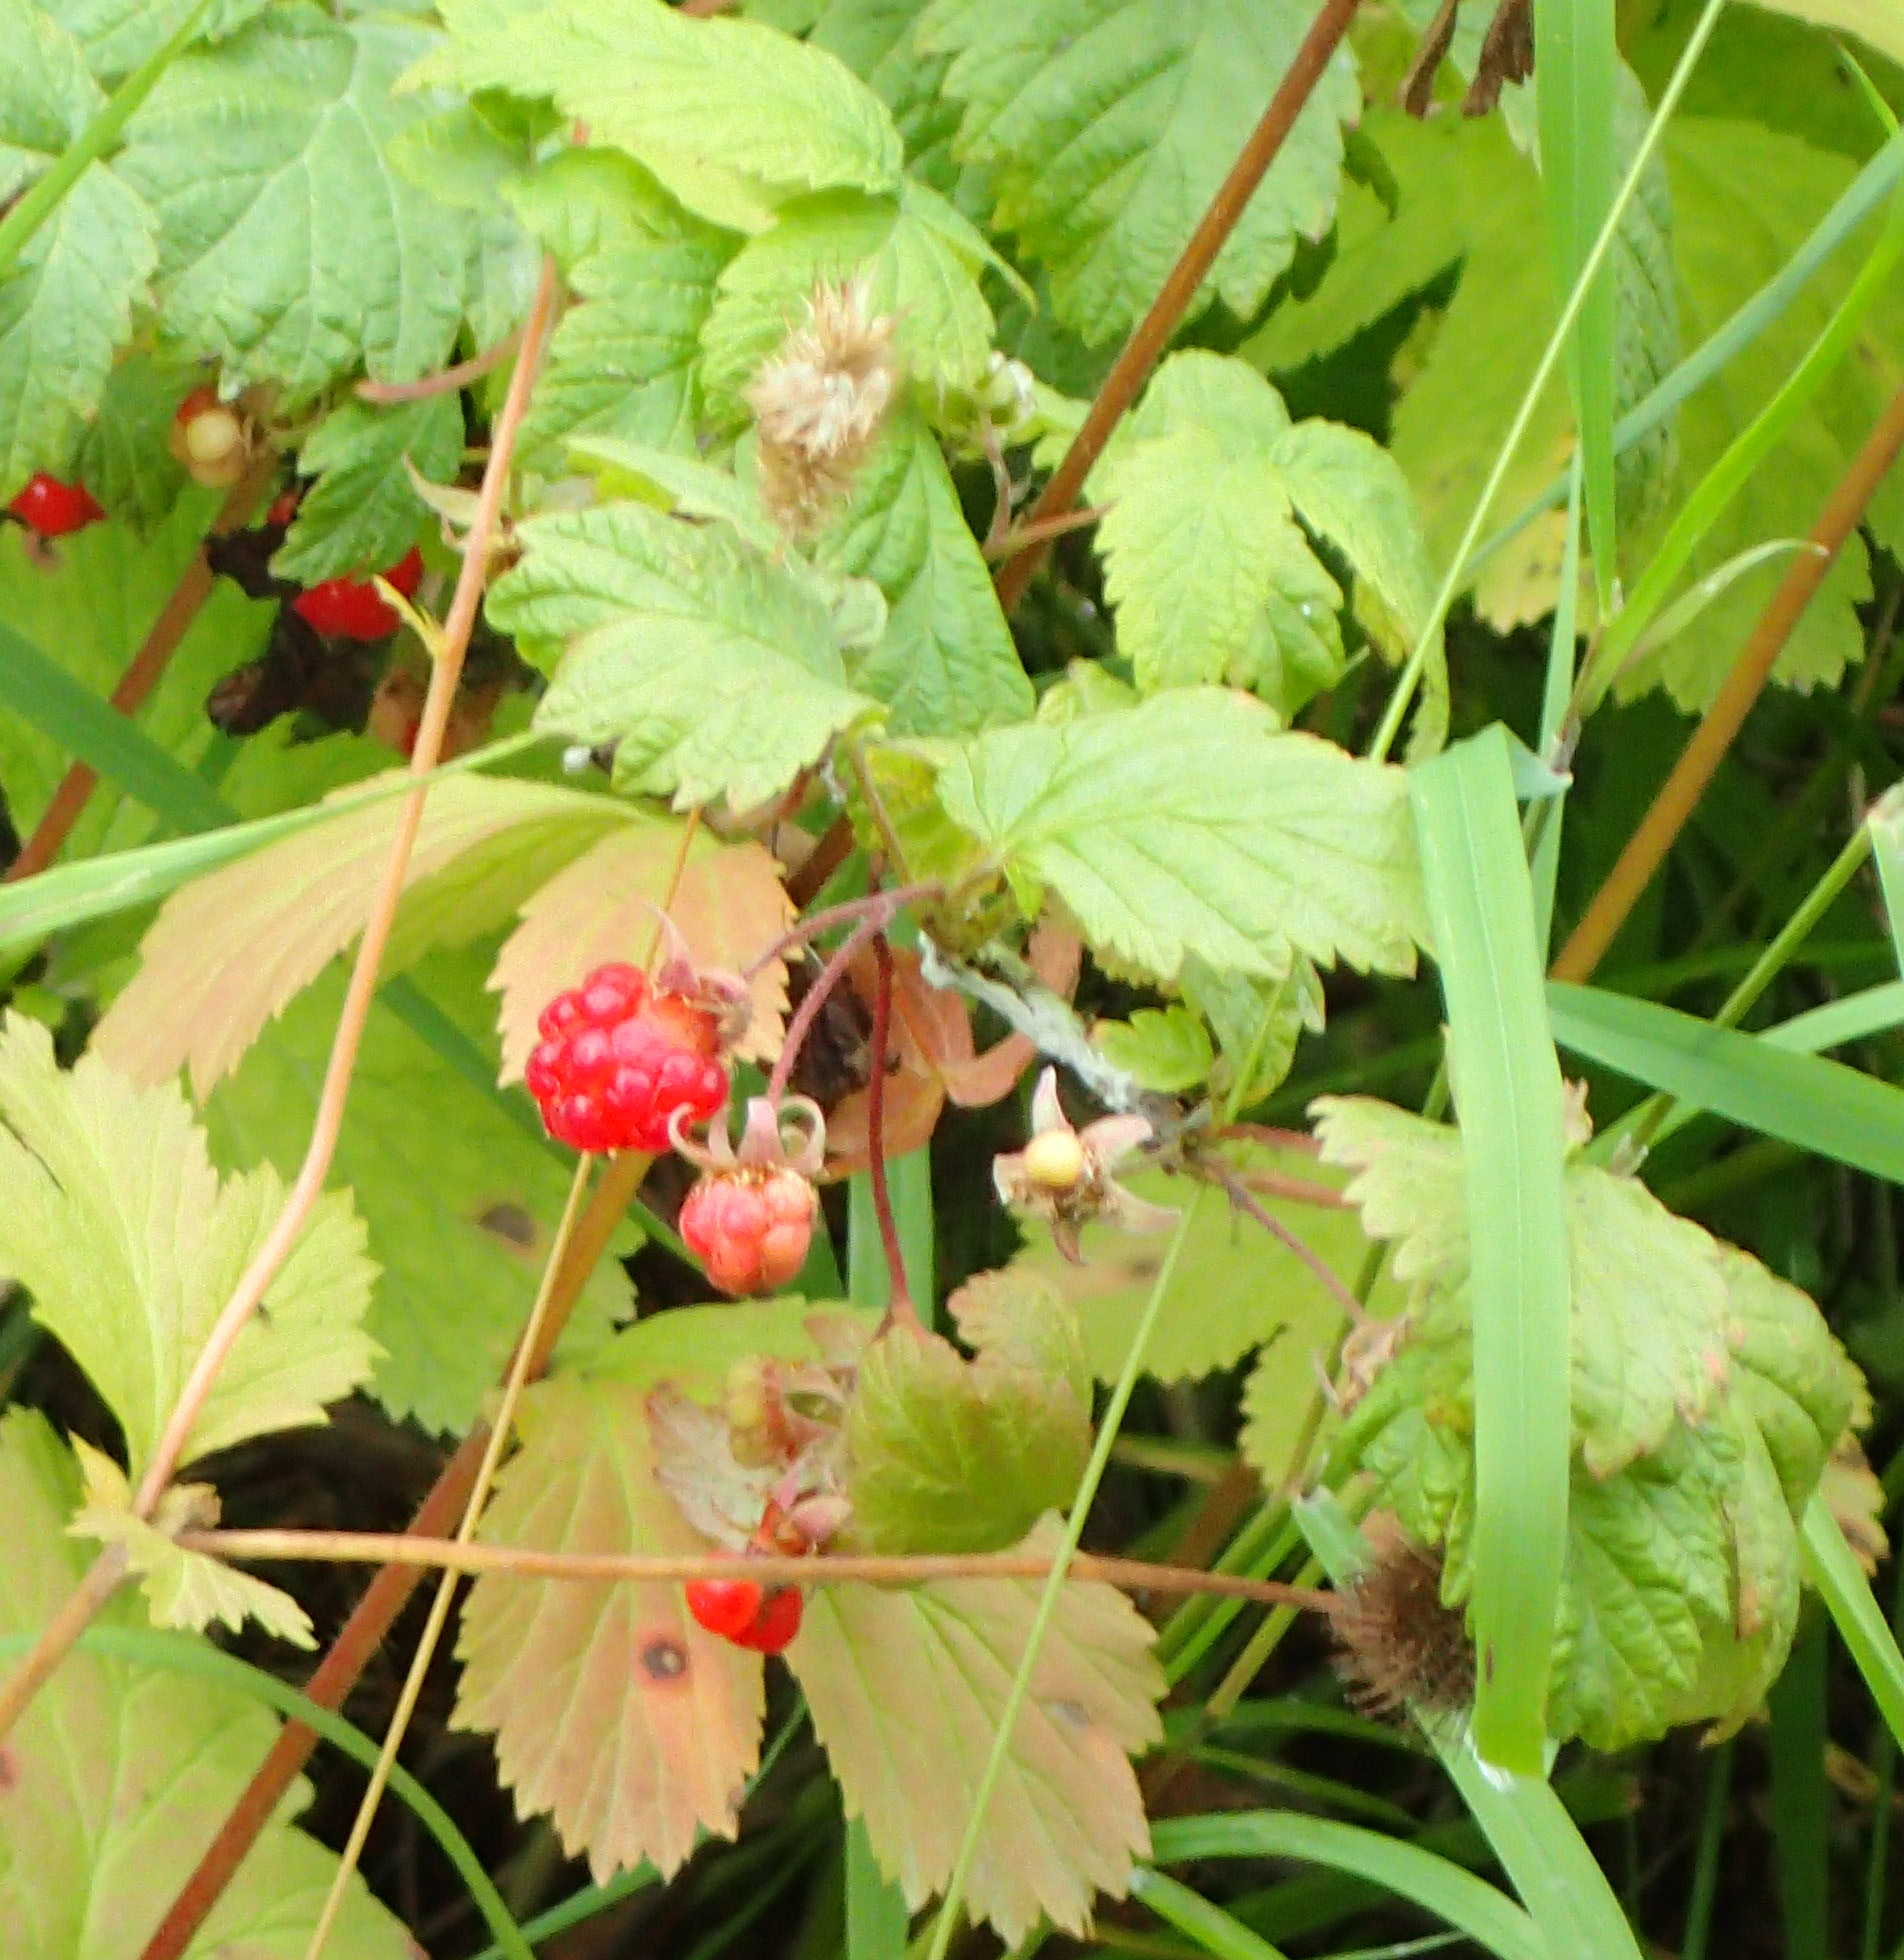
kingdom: Plantae
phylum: Tracheophyta
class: Magnoliopsida
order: Rosales
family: Rosaceae
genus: Rubus
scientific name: Rubus idaeus
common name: Raspberry
